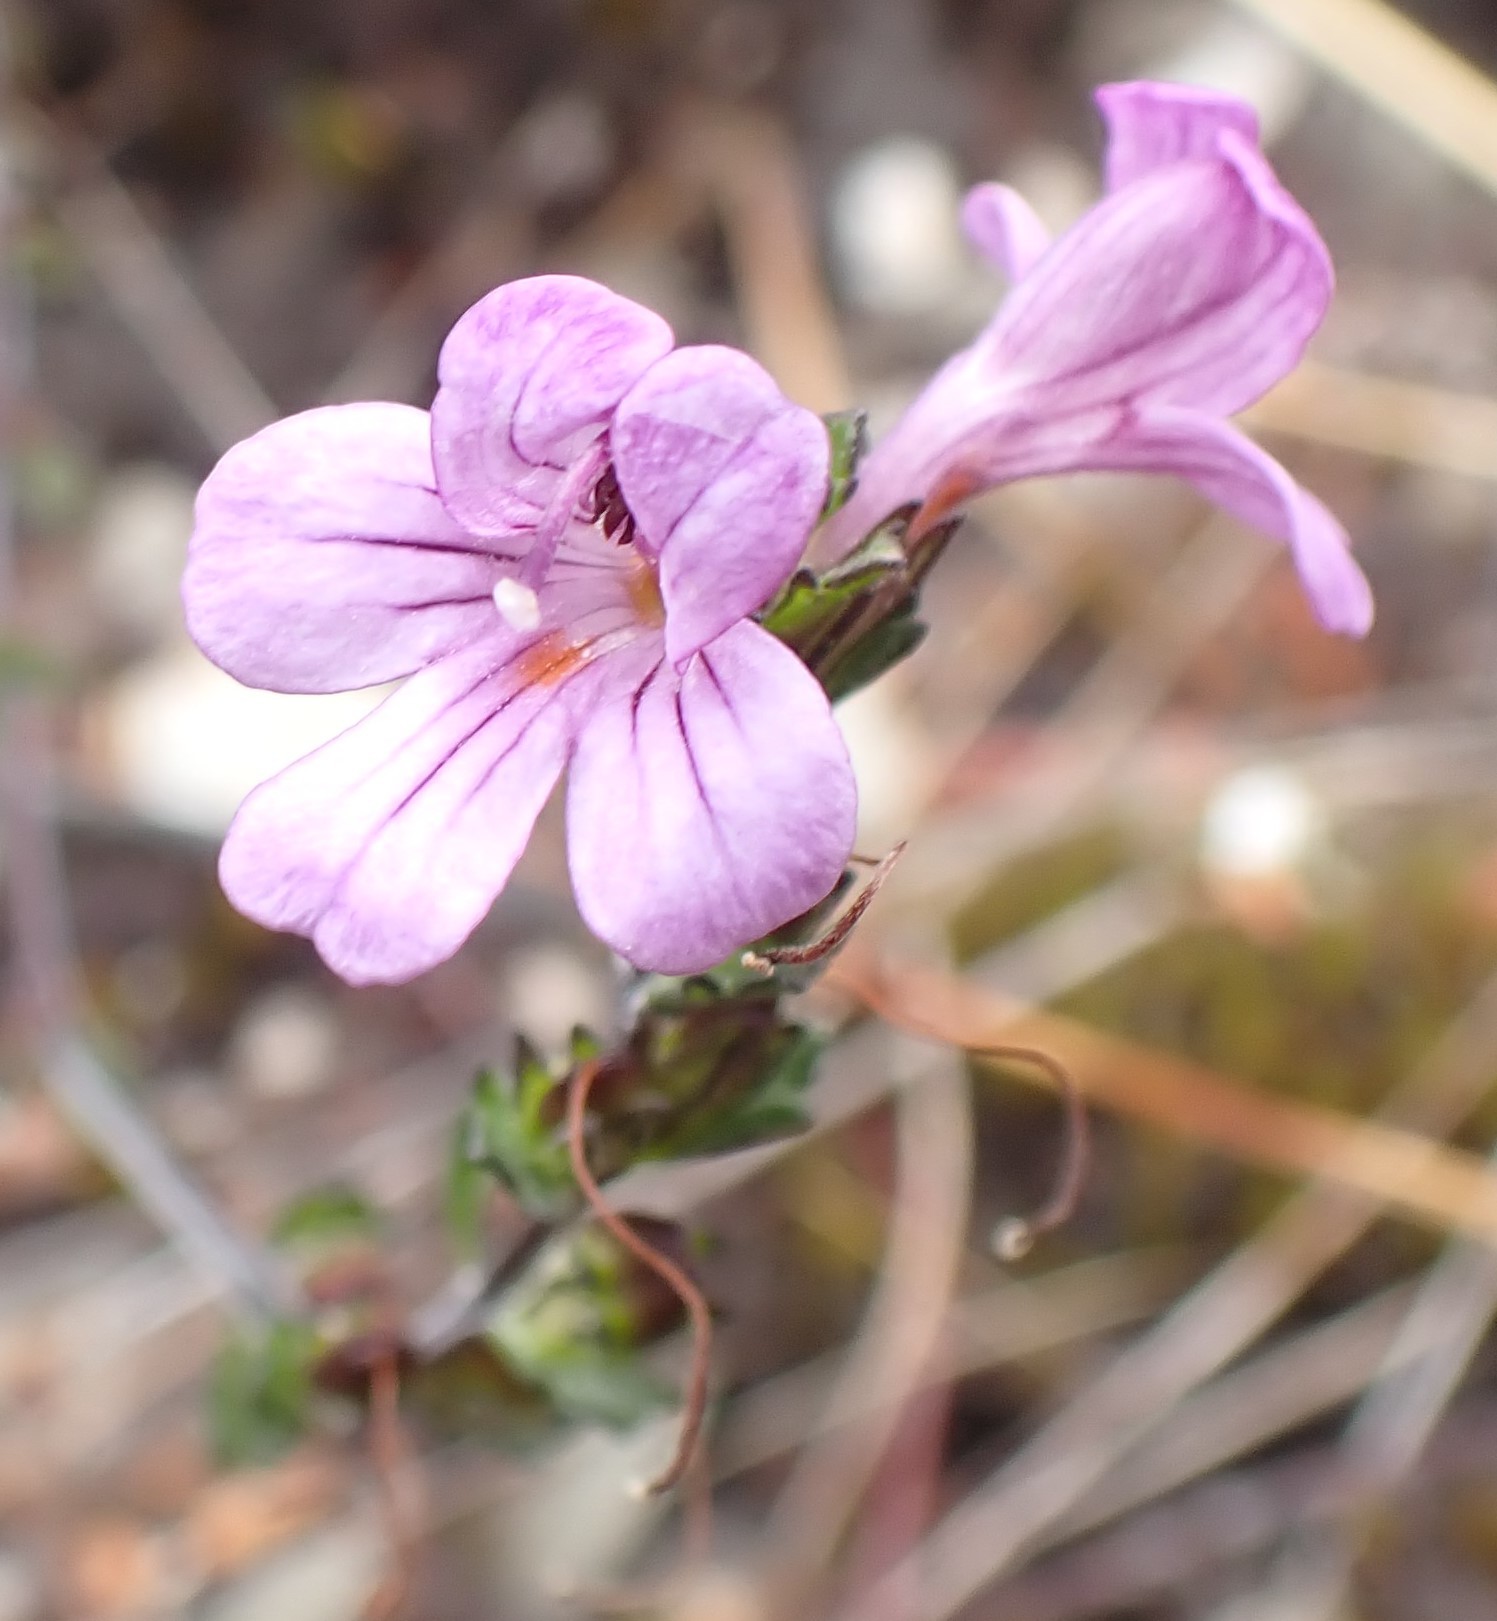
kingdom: Plantae
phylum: Tracheophyta
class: Magnoliopsida
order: Lamiales
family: Orobanchaceae
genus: Euphrasia
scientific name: Euphrasia collina
